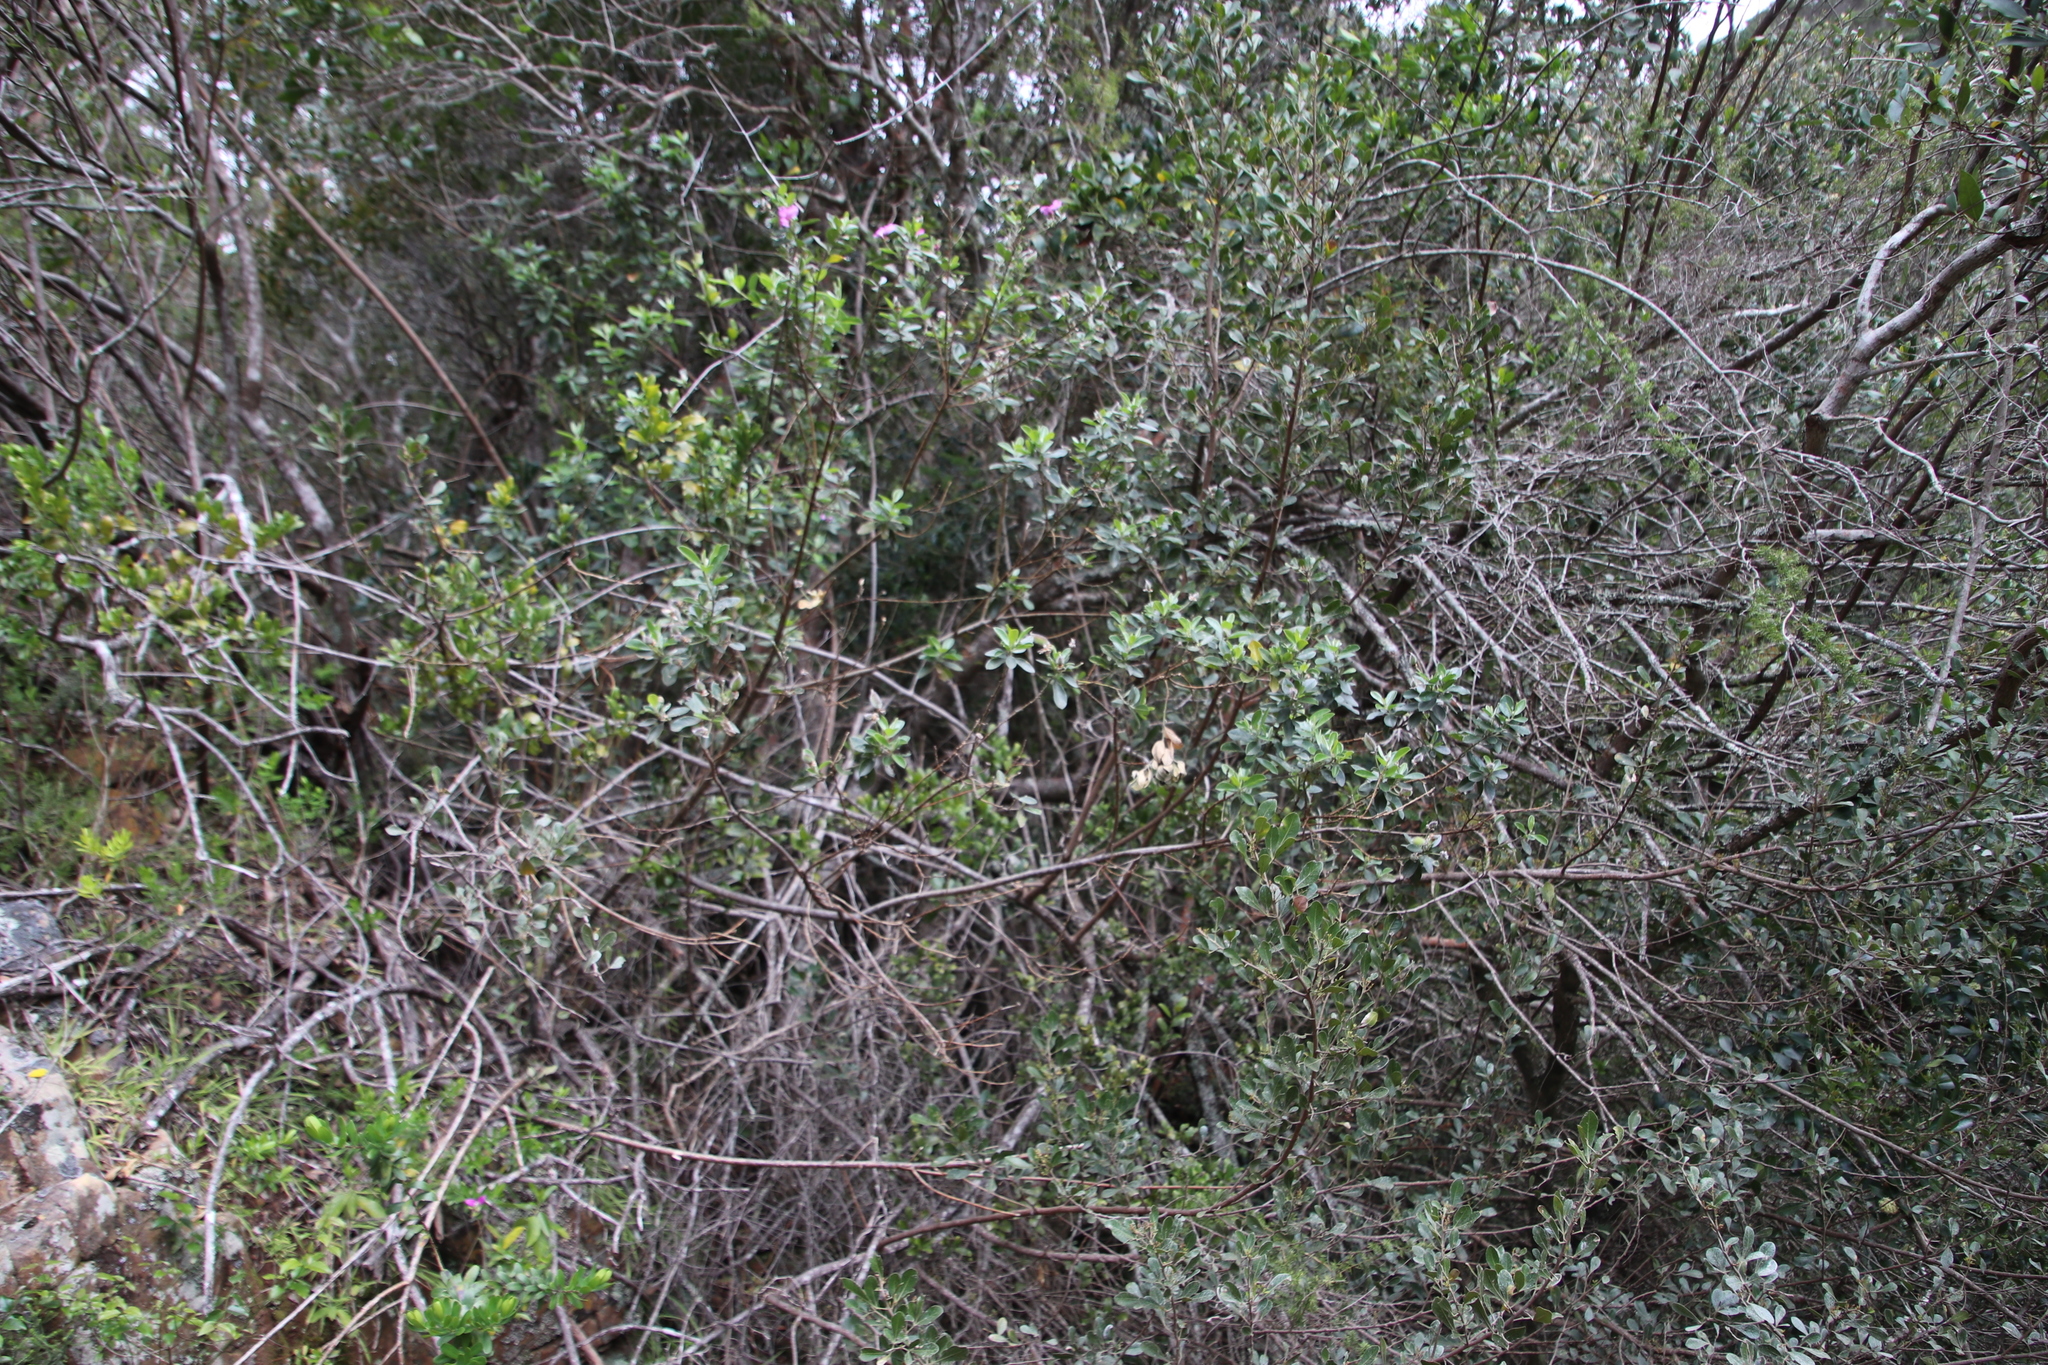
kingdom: Plantae
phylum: Tracheophyta
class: Magnoliopsida
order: Fabales
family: Fabaceae
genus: Podalyria
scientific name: Podalyria calyptrata
